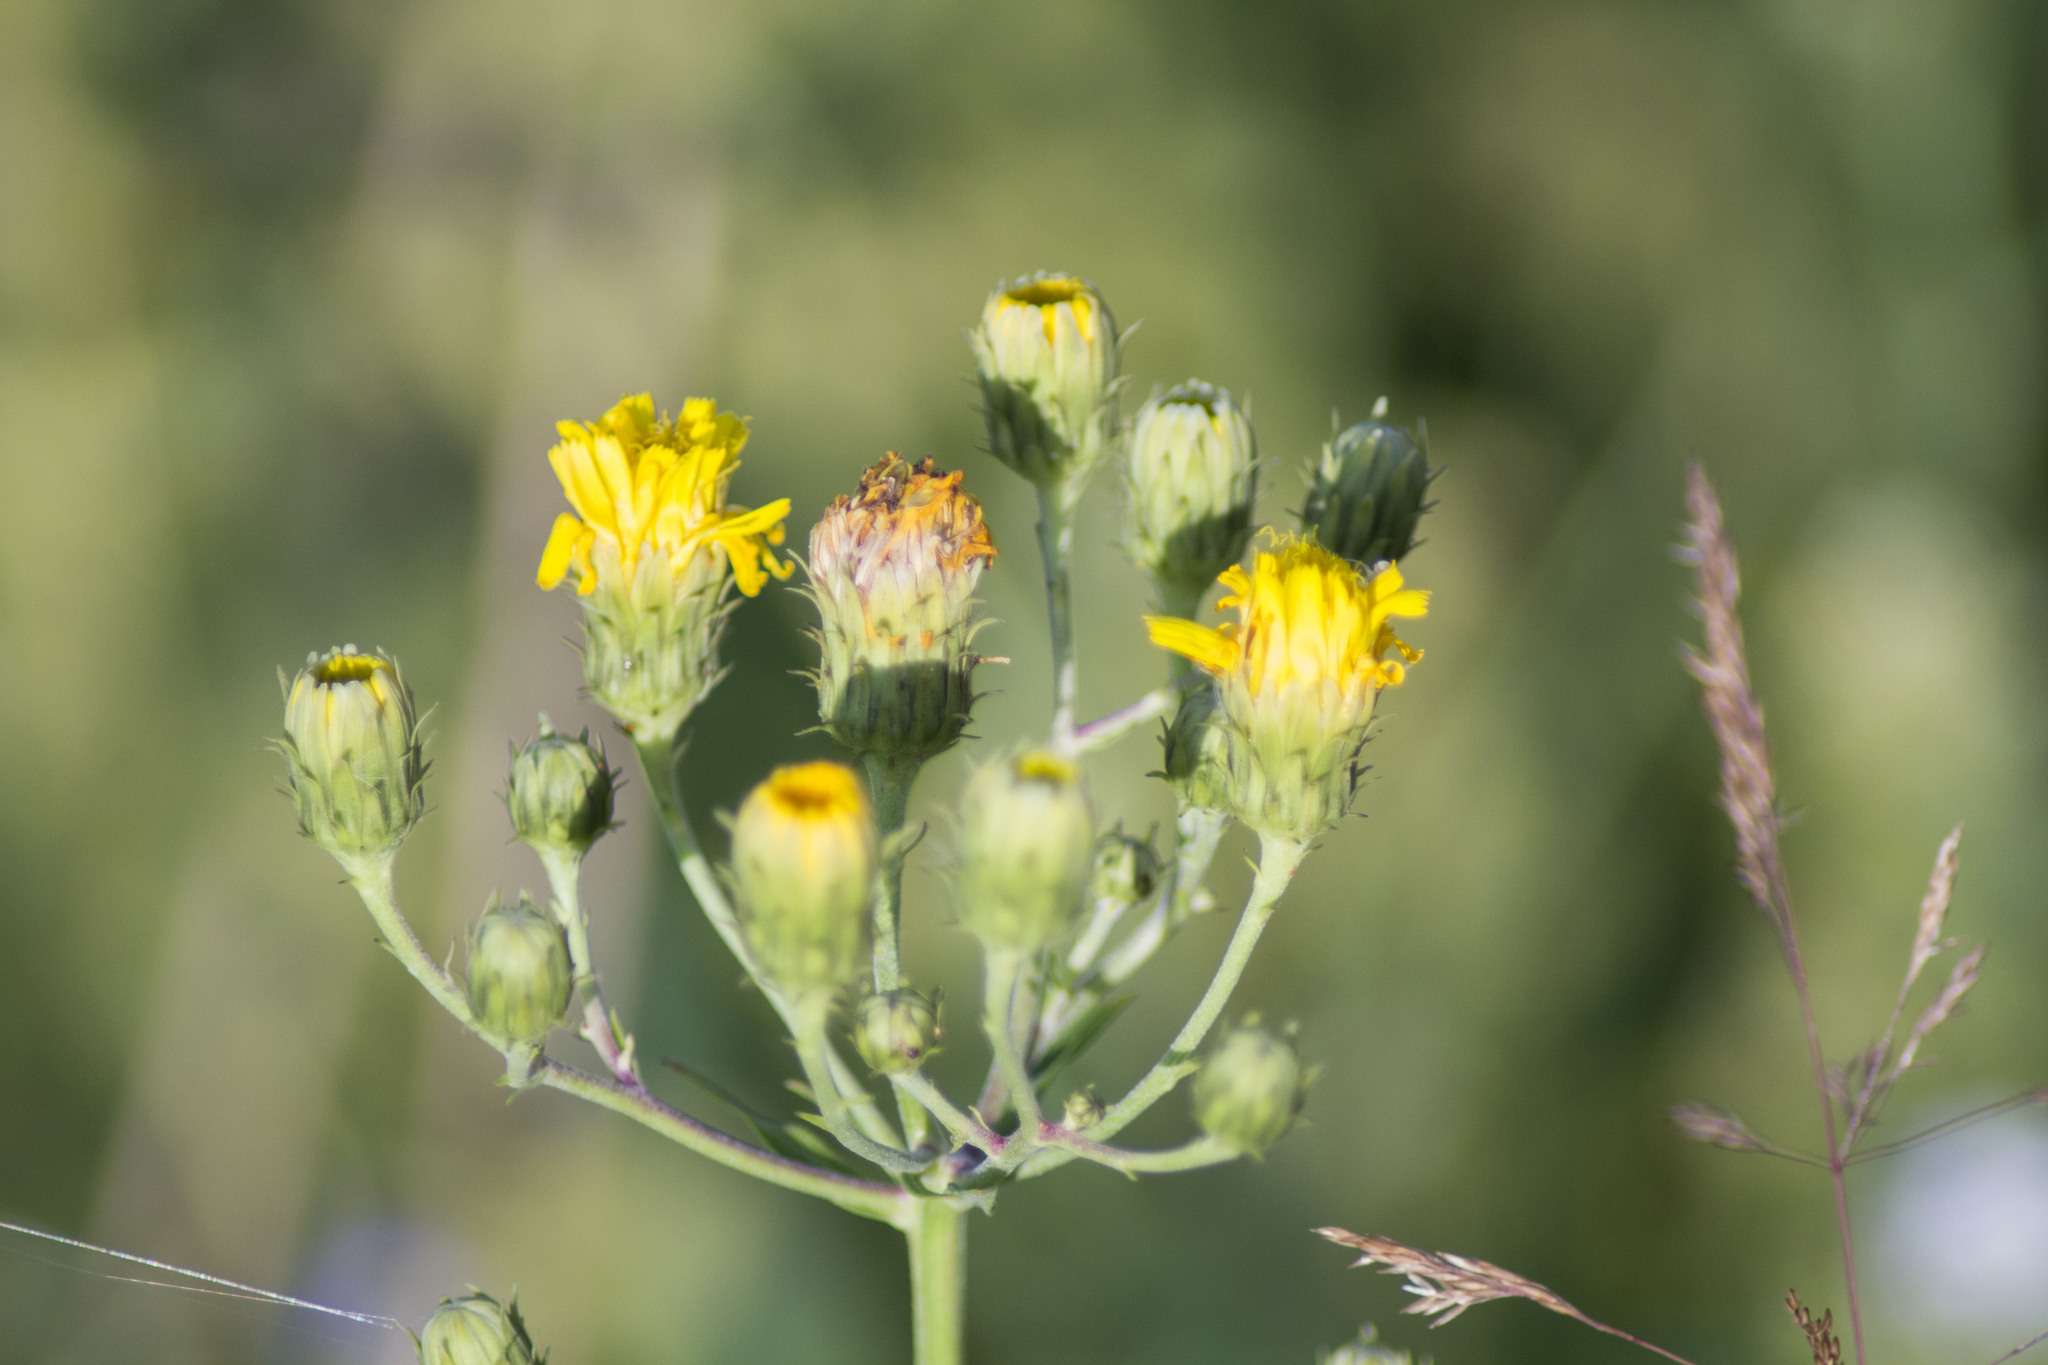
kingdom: Plantae
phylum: Tracheophyta
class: Magnoliopsida
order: Asterales
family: Asteraceae
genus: Hieracium
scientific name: Hieracium umbellatum
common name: Northern hawkweed
